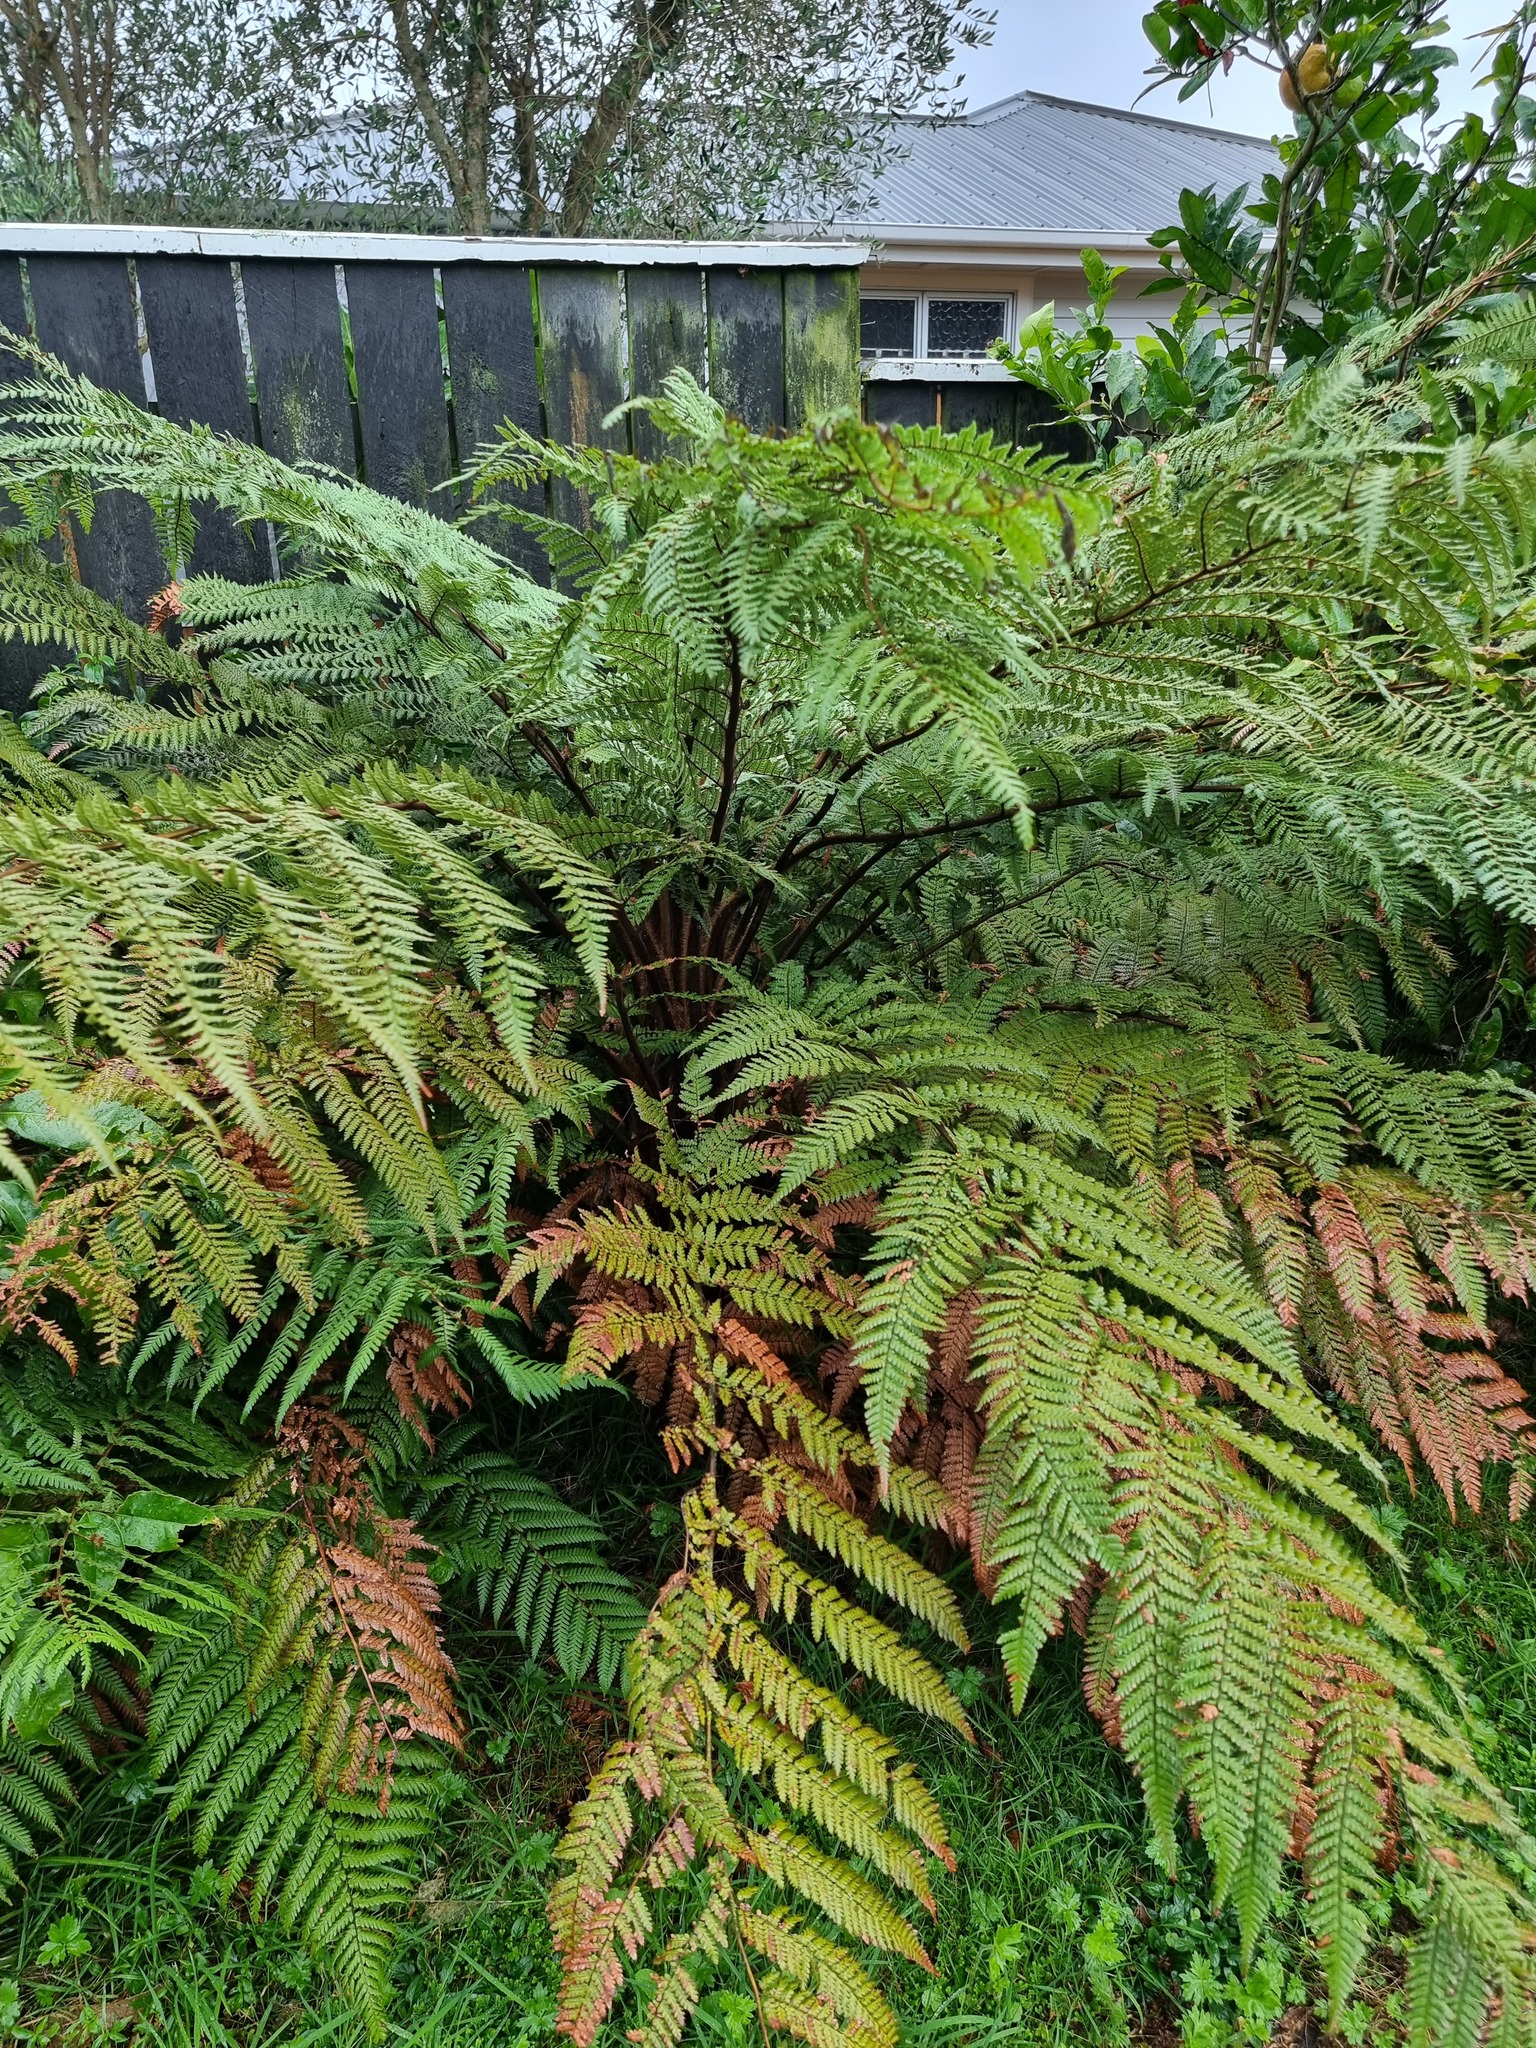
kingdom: Plantae
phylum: Tracheophyta
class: Polypodiopsida
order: Cyatheales
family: Dicksoniaceae
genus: Dicksonia
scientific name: Dicksonia squarrosa
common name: Hard treefern
